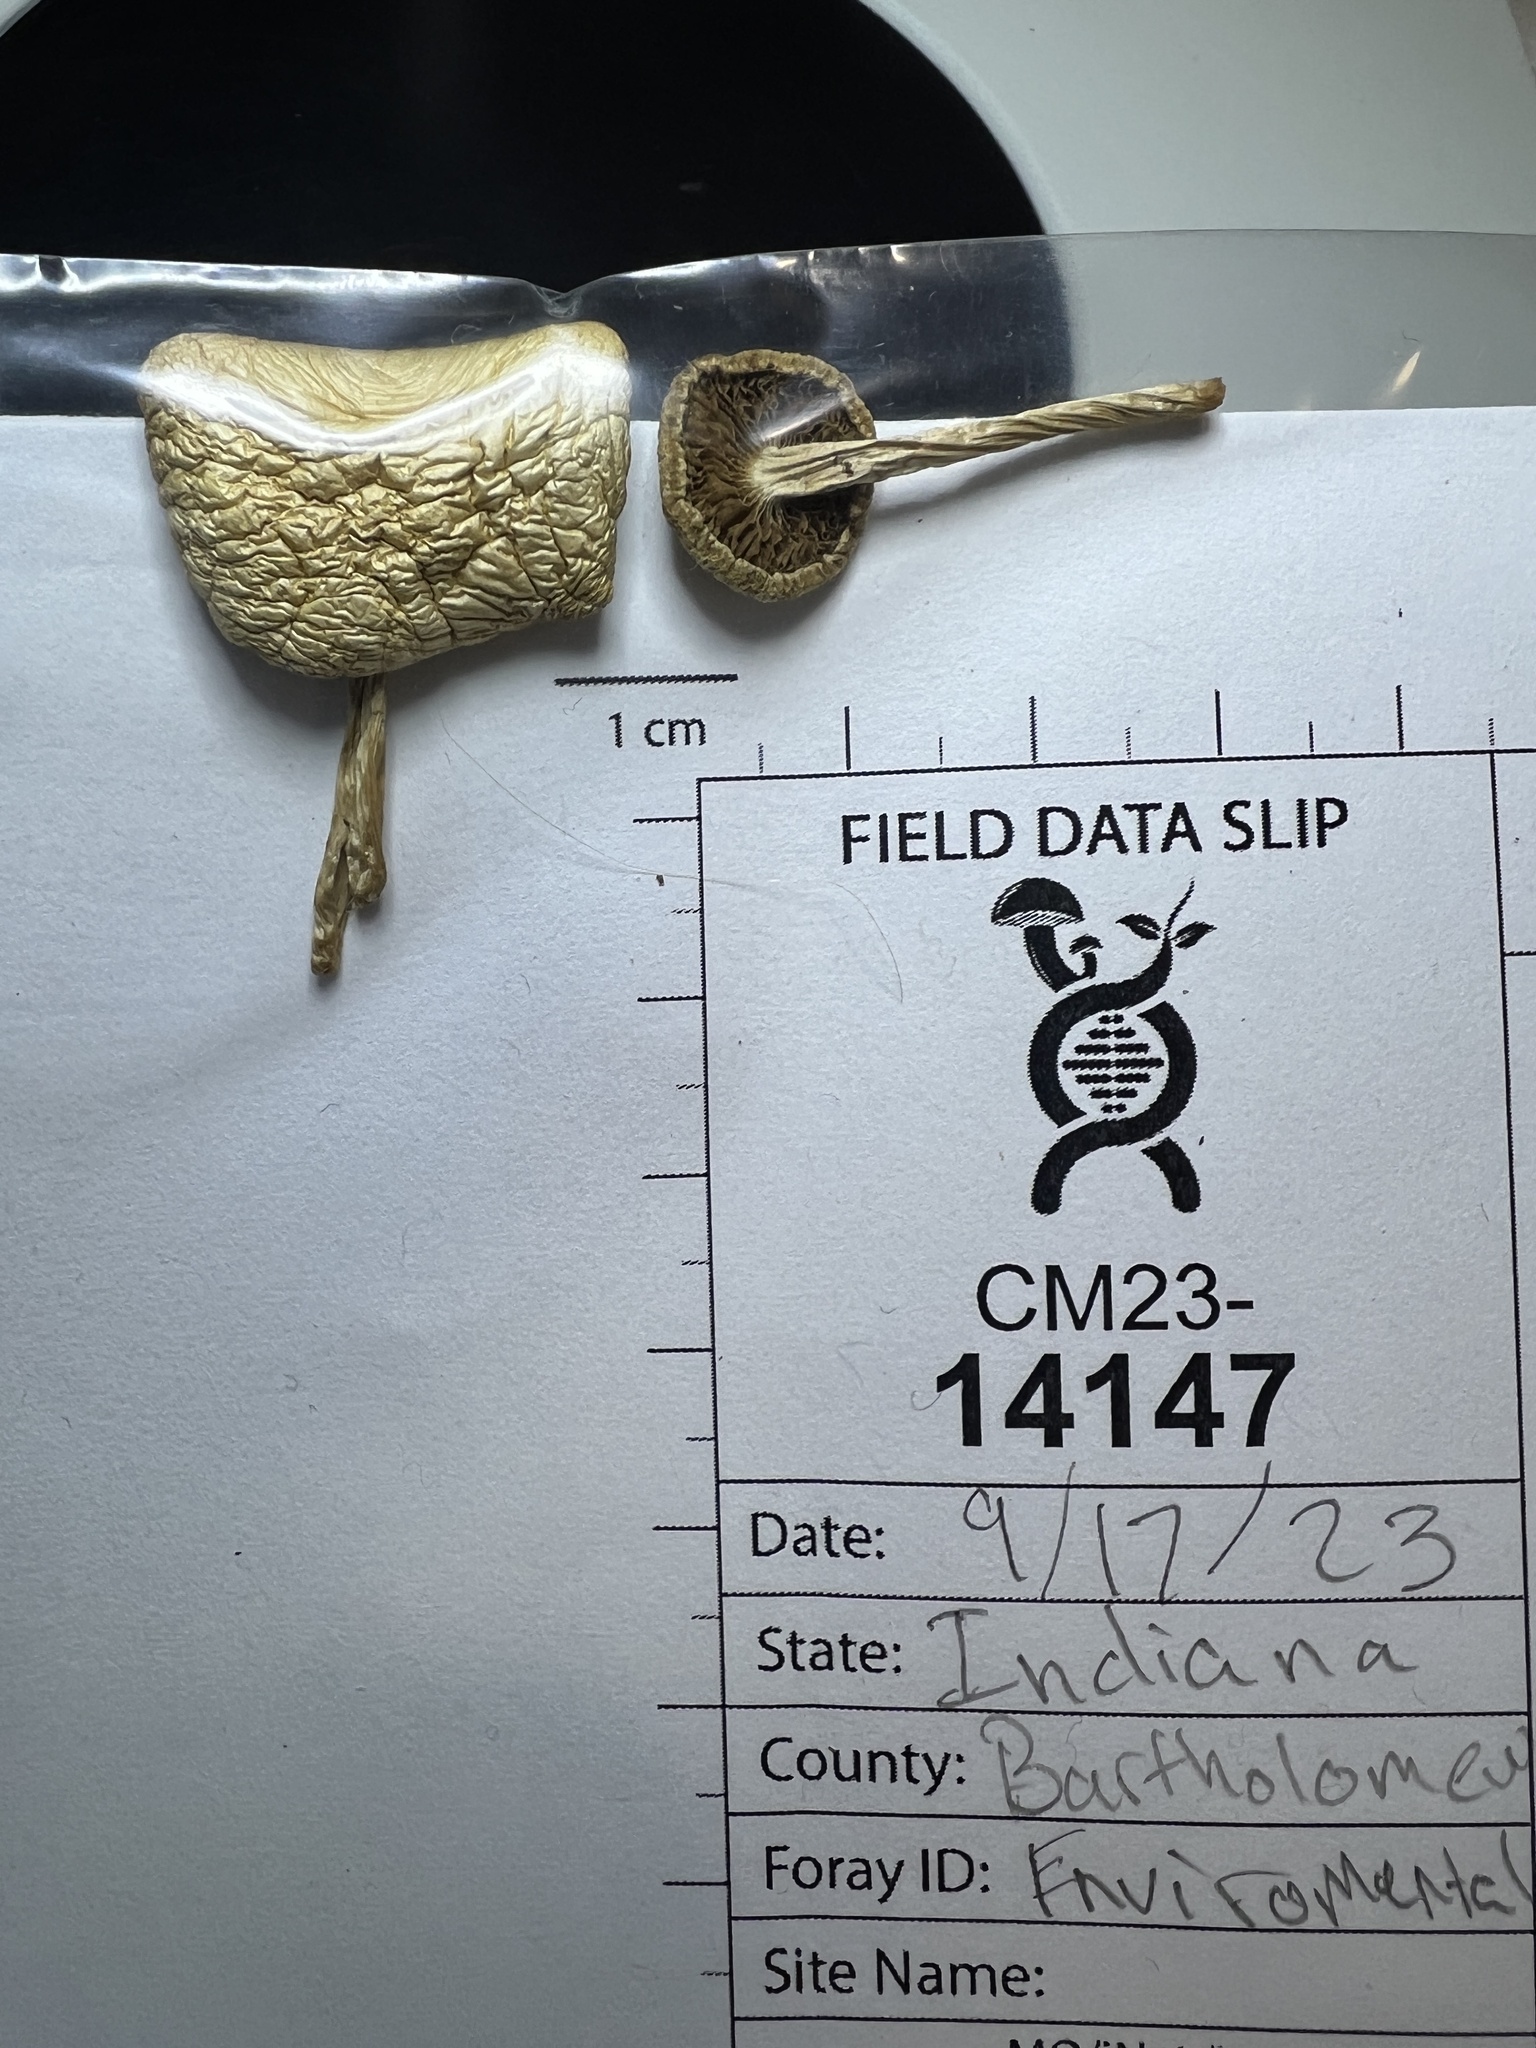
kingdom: Fungi
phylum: Basidiomycota
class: Agaricomycetes
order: Agaricales
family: Strophariaceae
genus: Agrocybe
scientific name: Agrocybe molesta
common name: Bearded fieldcap
